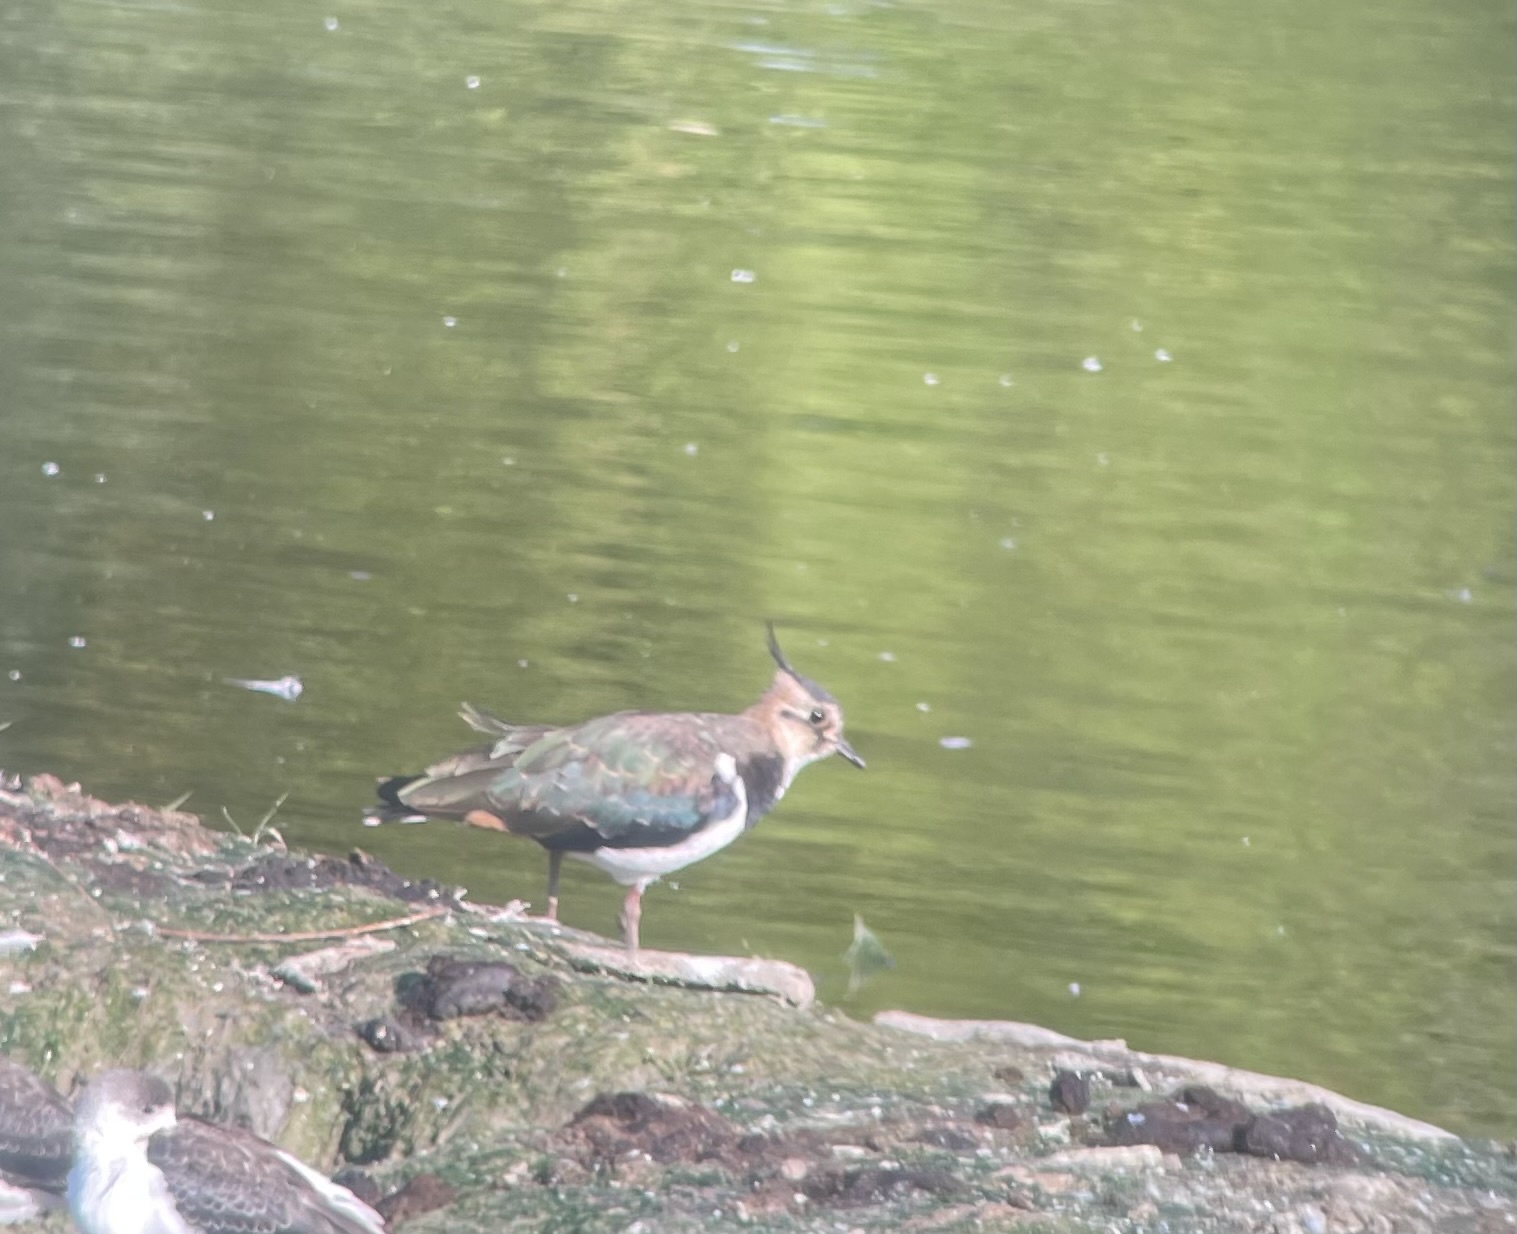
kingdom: Animalia
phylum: Chordata
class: Aves
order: Charadriiformes
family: Charadriidae
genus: Vanellus
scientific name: Vanellus vanellus
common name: Northern lapwing
